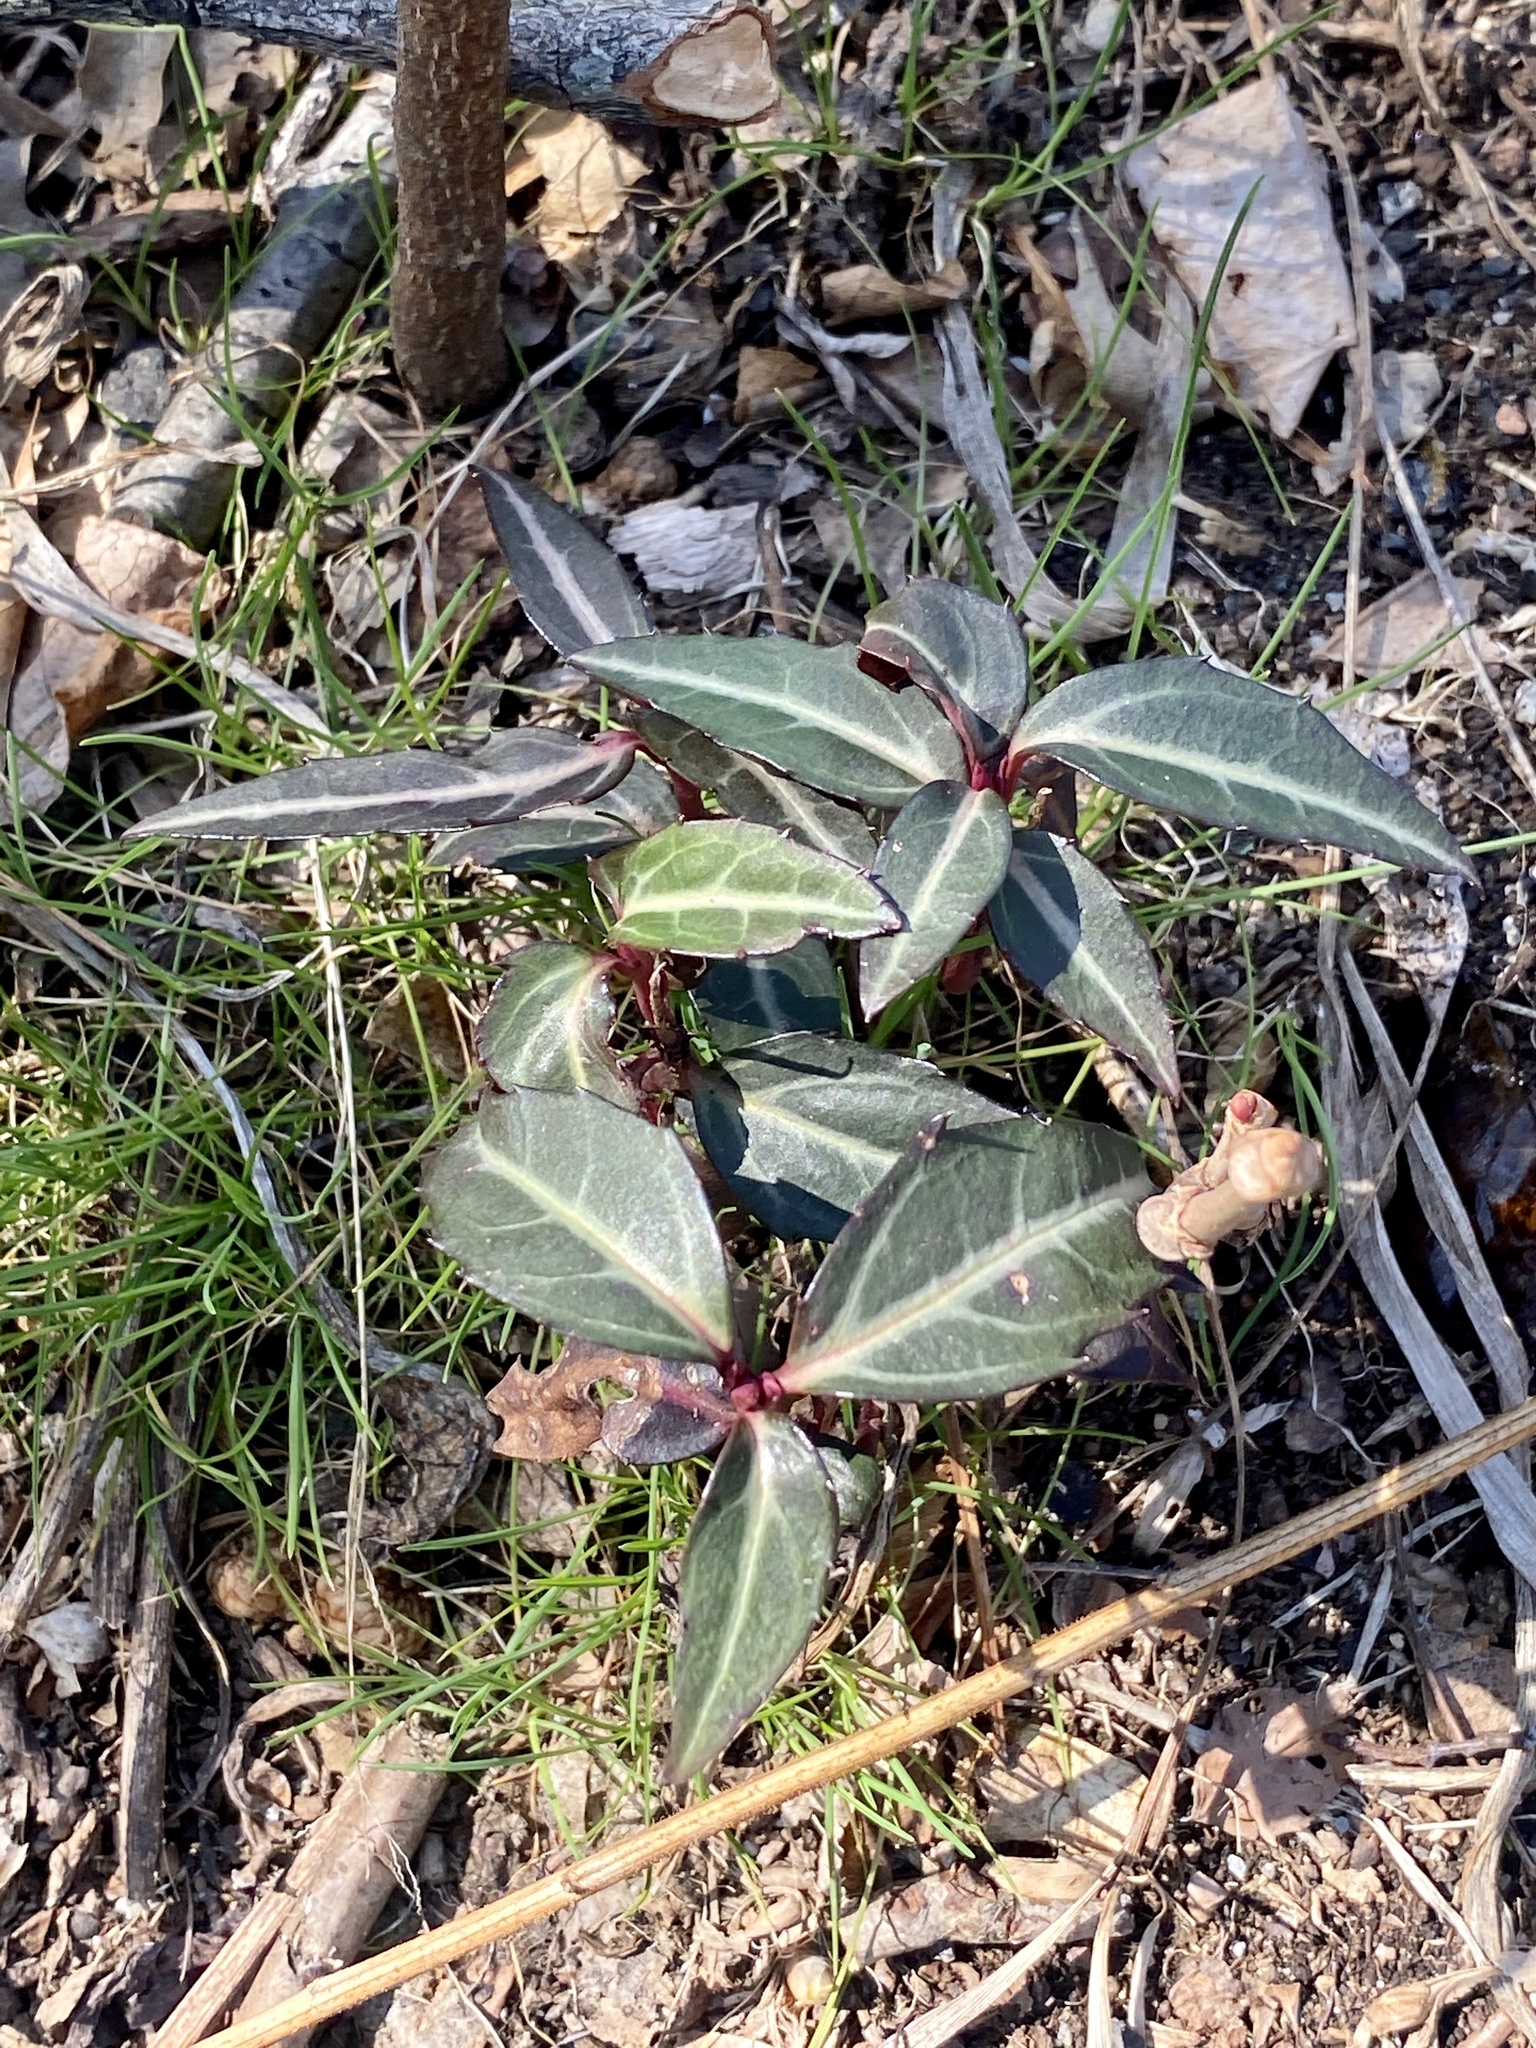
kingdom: Plantae
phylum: Tracheophyta
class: Magnoliopsida
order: Ericales
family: Ericaceae
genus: Chimaphila
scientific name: Chimaphila maculata
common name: Spotted pipsissewa
